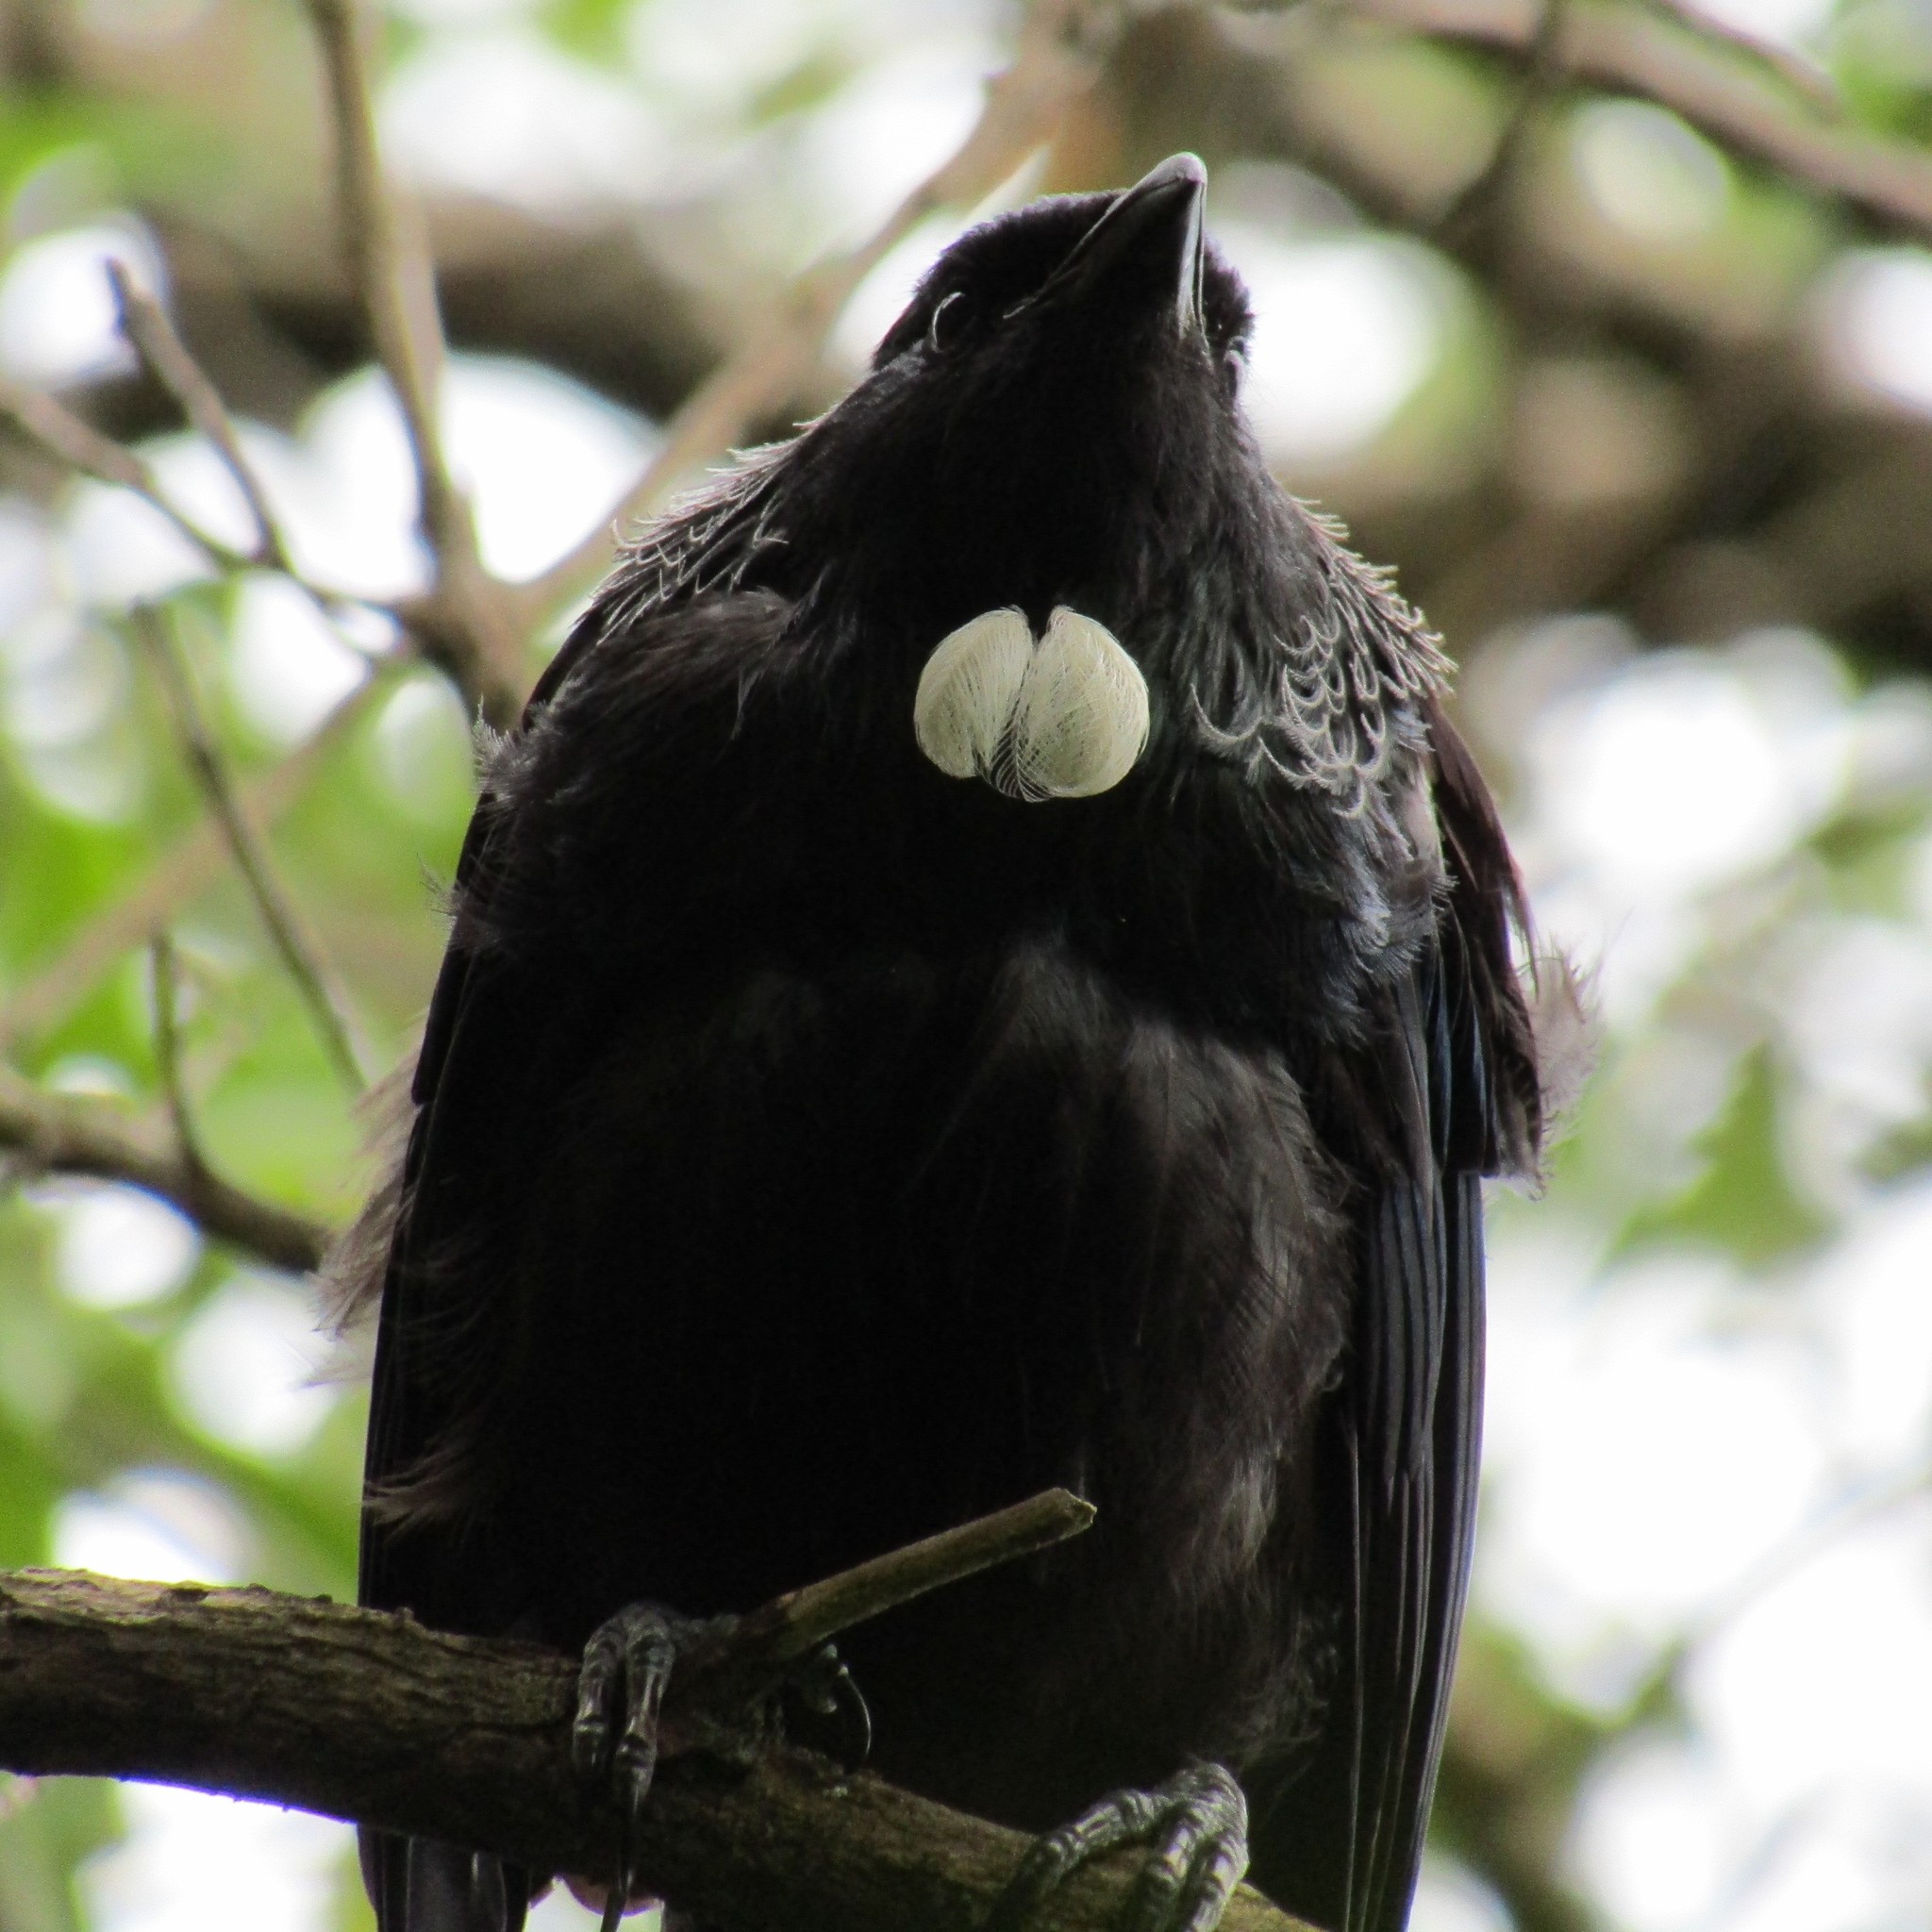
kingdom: Animalia
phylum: Chordata
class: Aves
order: Passeriformes
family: Meliphagidae
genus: Prosthemadera
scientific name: Prosthemadera novaeseelandiae
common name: Tui
